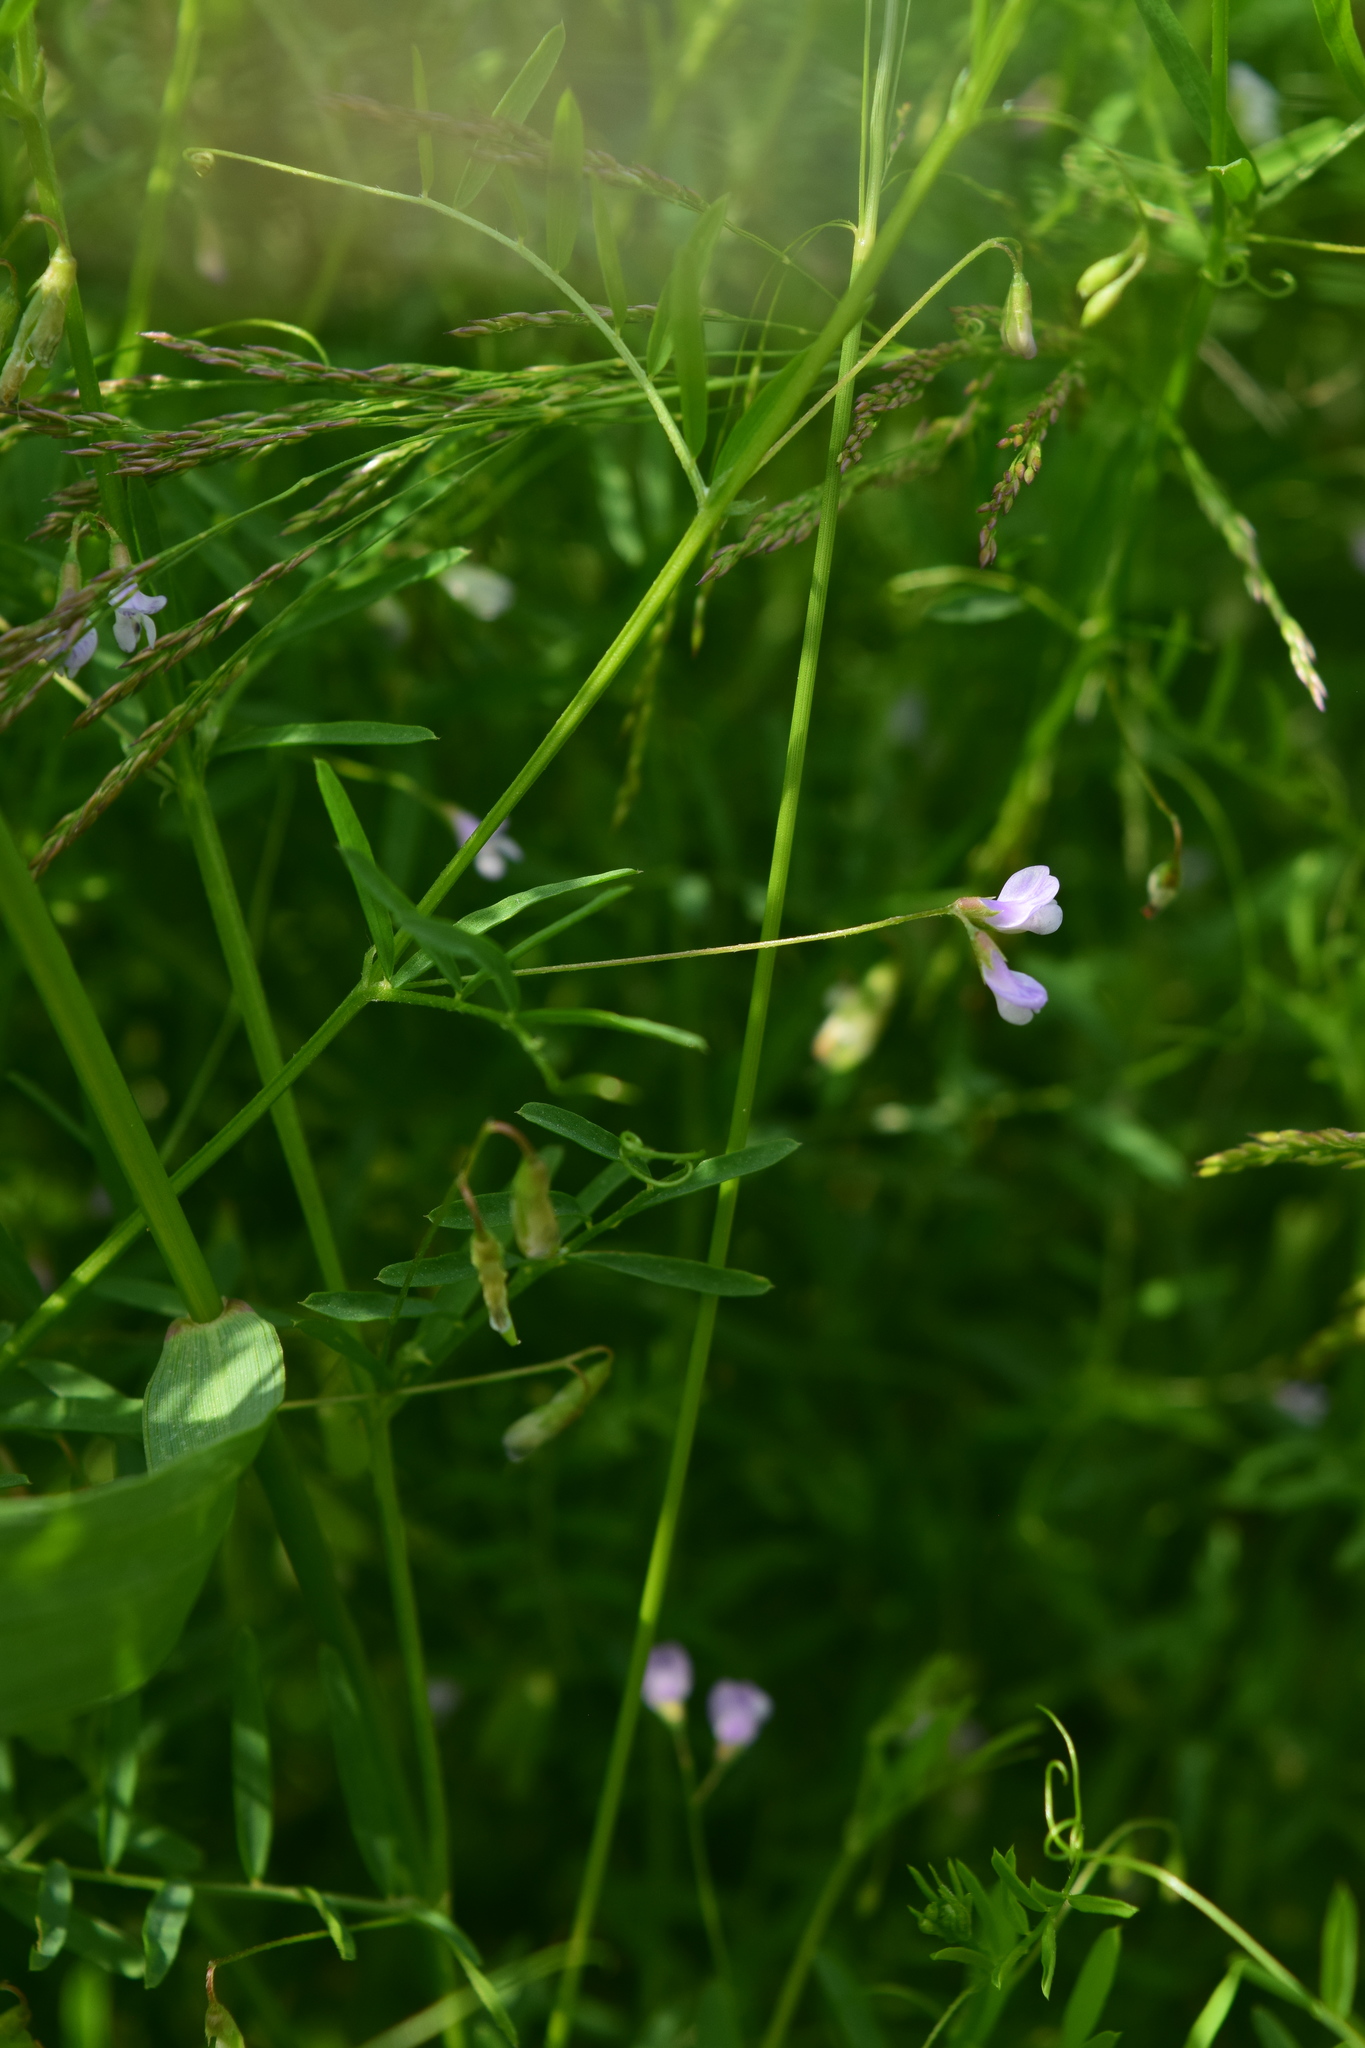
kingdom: Plantae
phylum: Tracheophyta
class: Magnoliopsida
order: Fabales
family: Fabaceae
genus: Vicia
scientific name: Vicia tetrasperma
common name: Smooth tare
